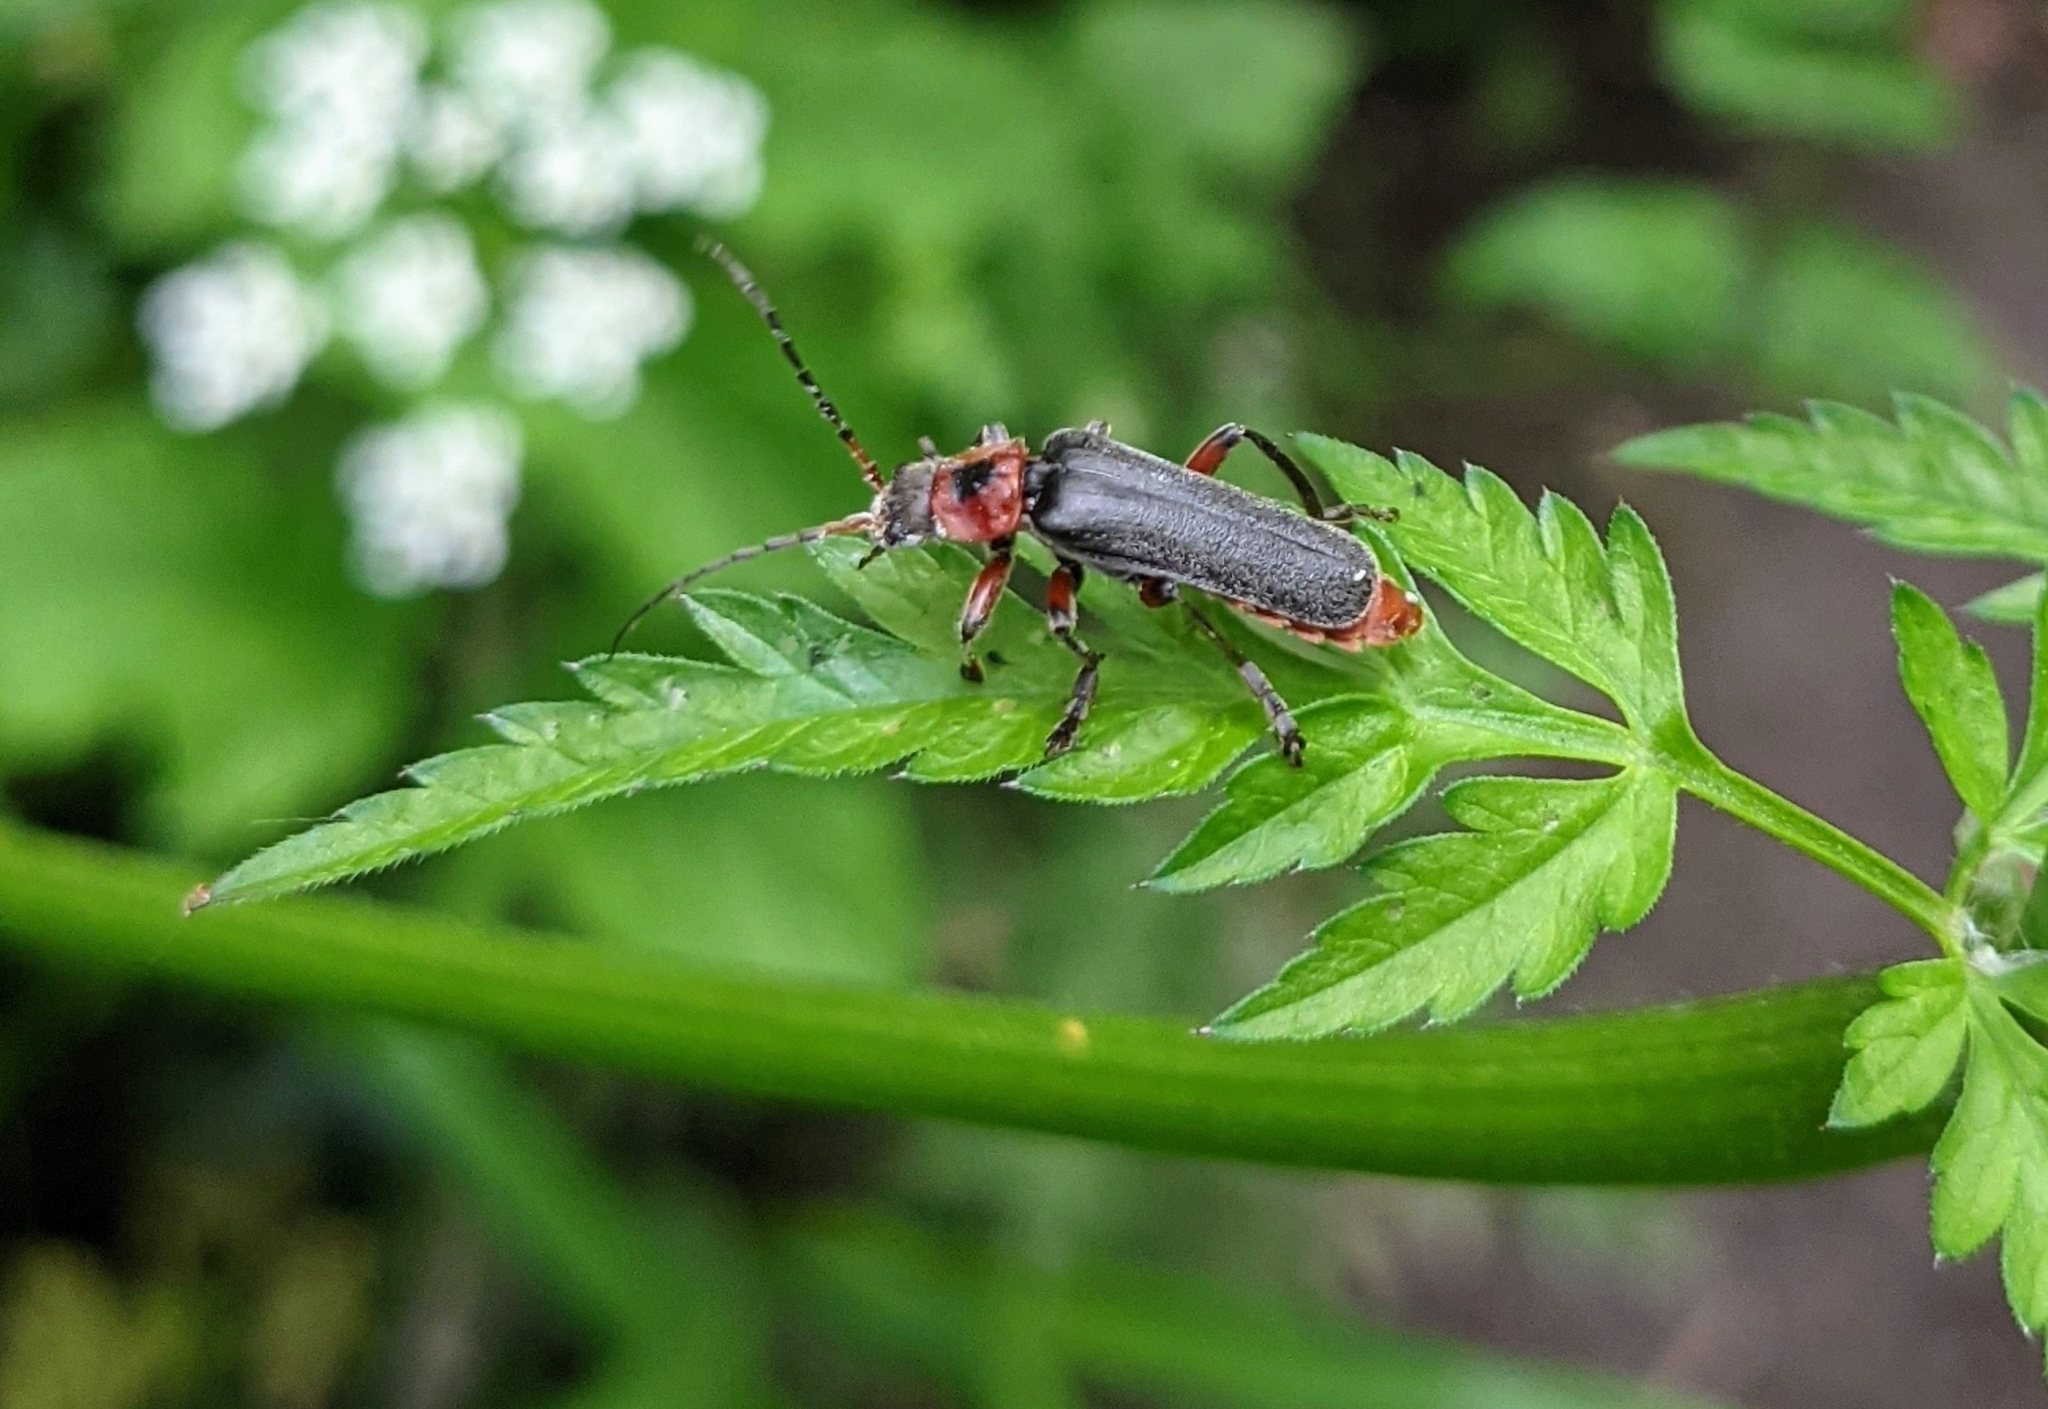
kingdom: Animalia
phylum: Arthropoda
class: Insecta
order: Coleoptera
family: Cantharidae
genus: Cantharis
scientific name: Cantharis rustica
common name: Soldier beetle
